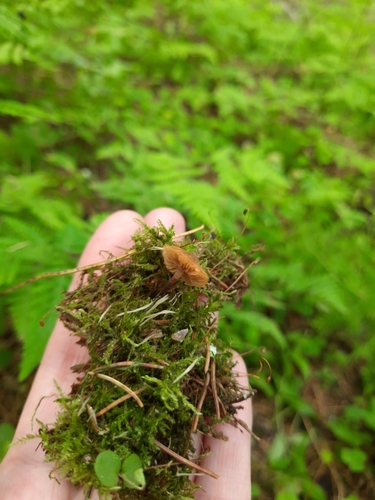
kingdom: Fungi
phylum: Basidiomycota
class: Agaricomycetes
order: Agaricales
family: Strophariaceae
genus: Pholiota
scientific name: Pholiota lignicola
